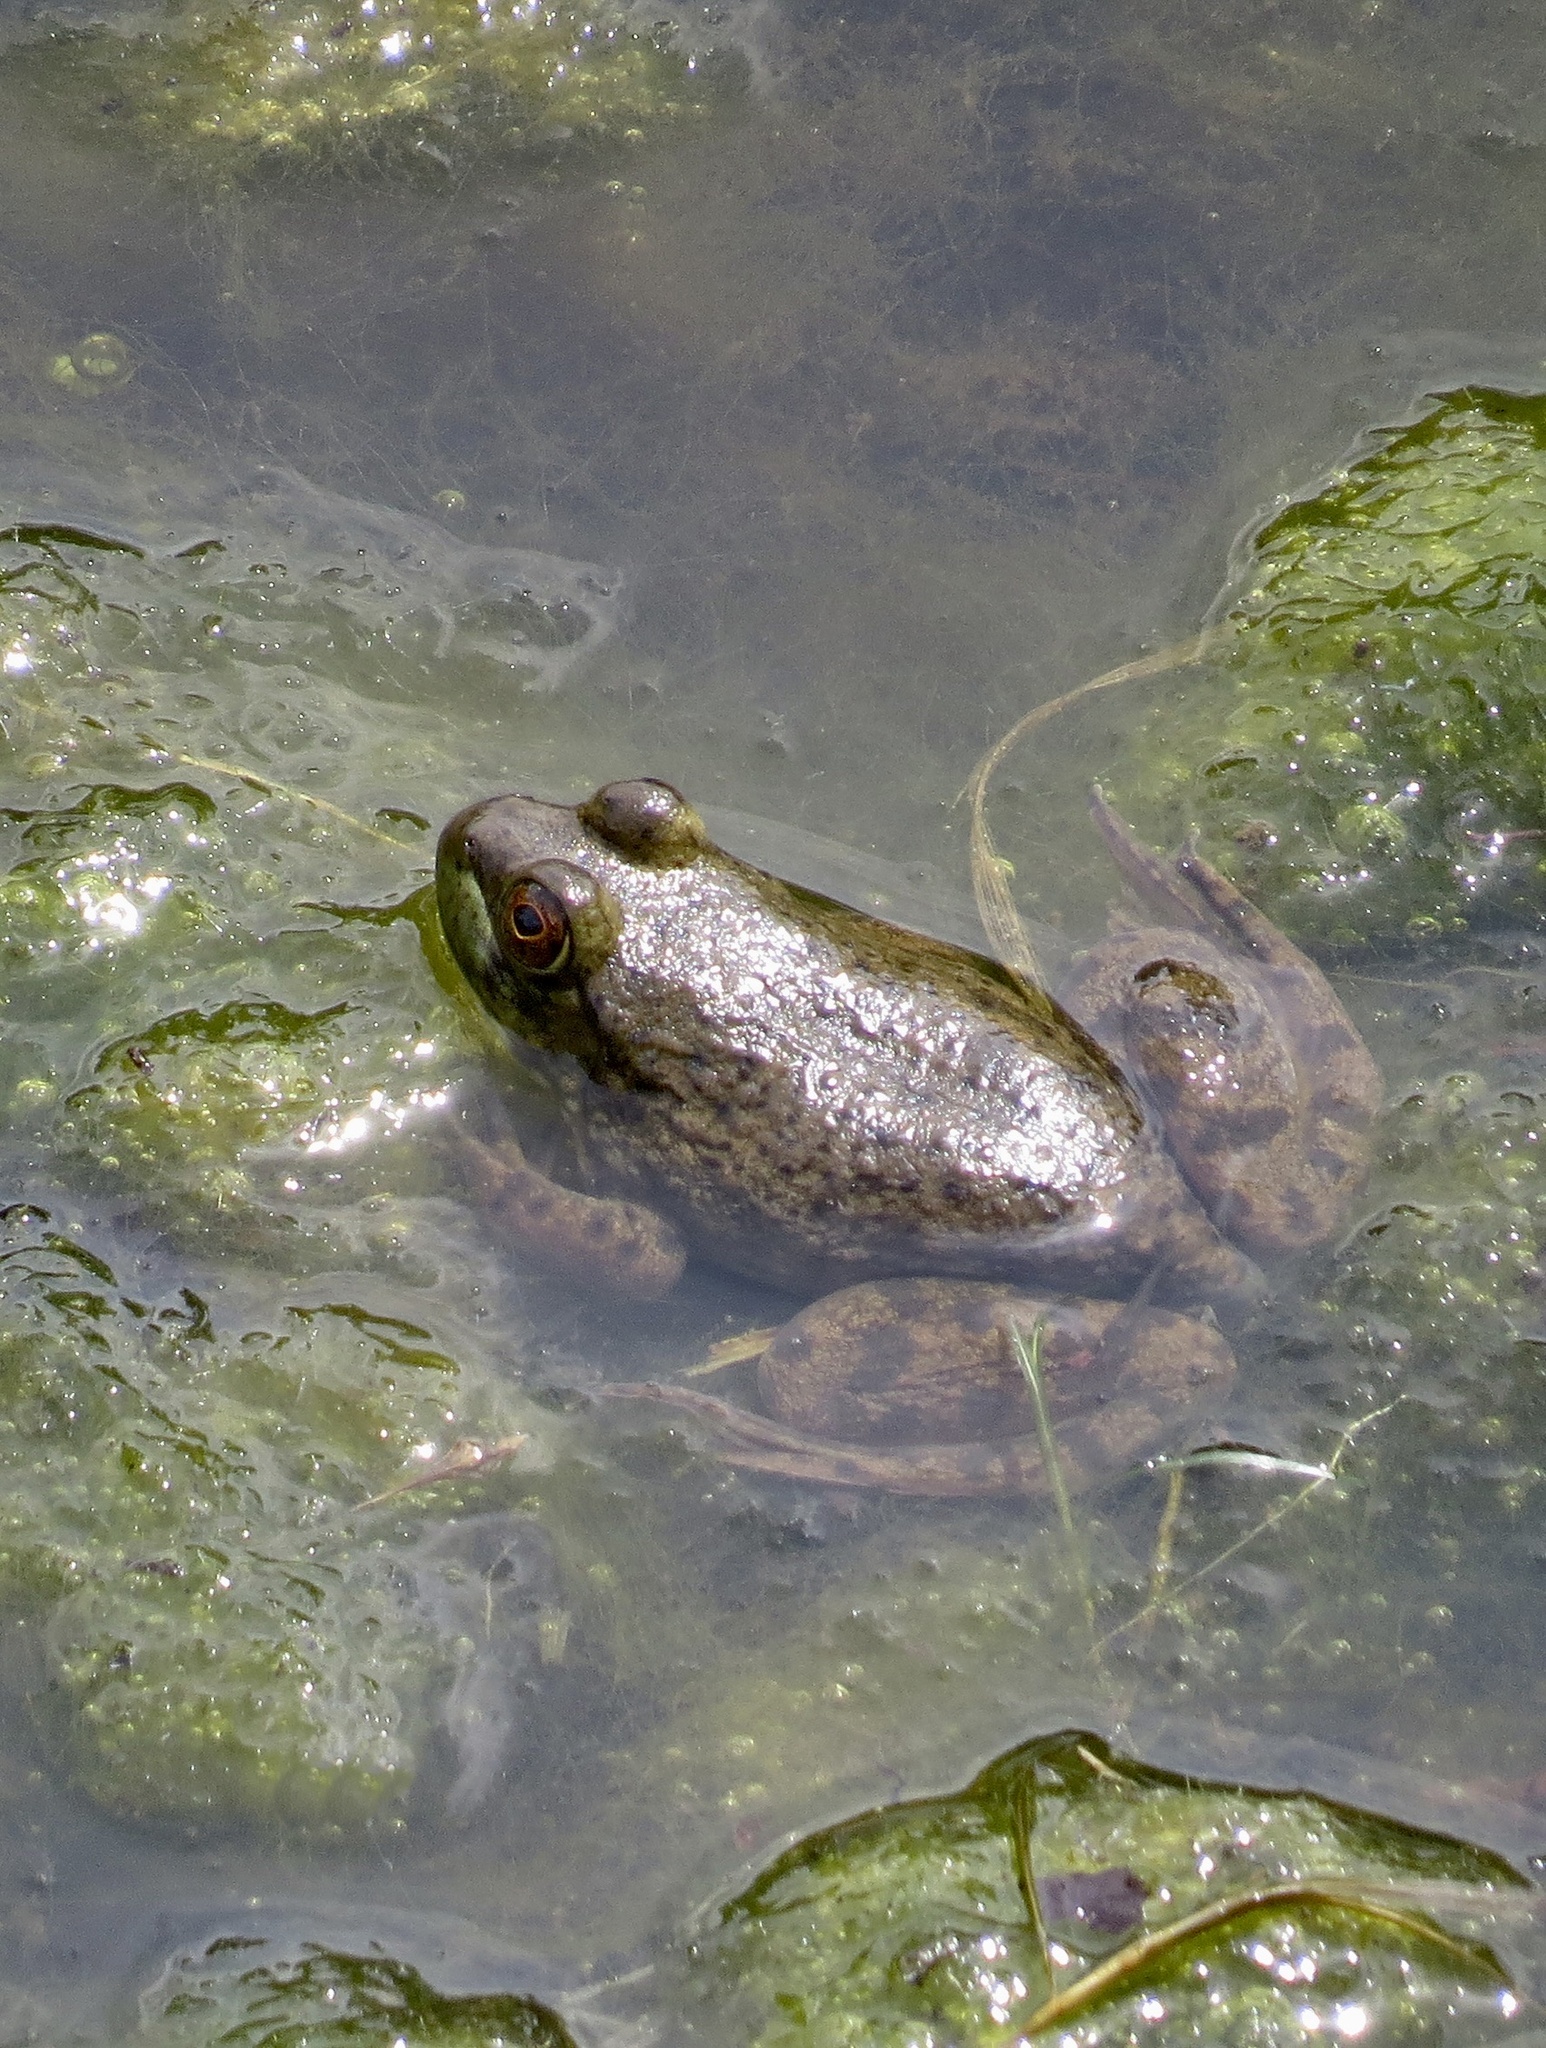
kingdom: Animalia
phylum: Chordata
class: Amphibia
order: Anura
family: Ranidae
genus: Lithobates
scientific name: Lithobates catesbeianus
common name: American bullfrog
